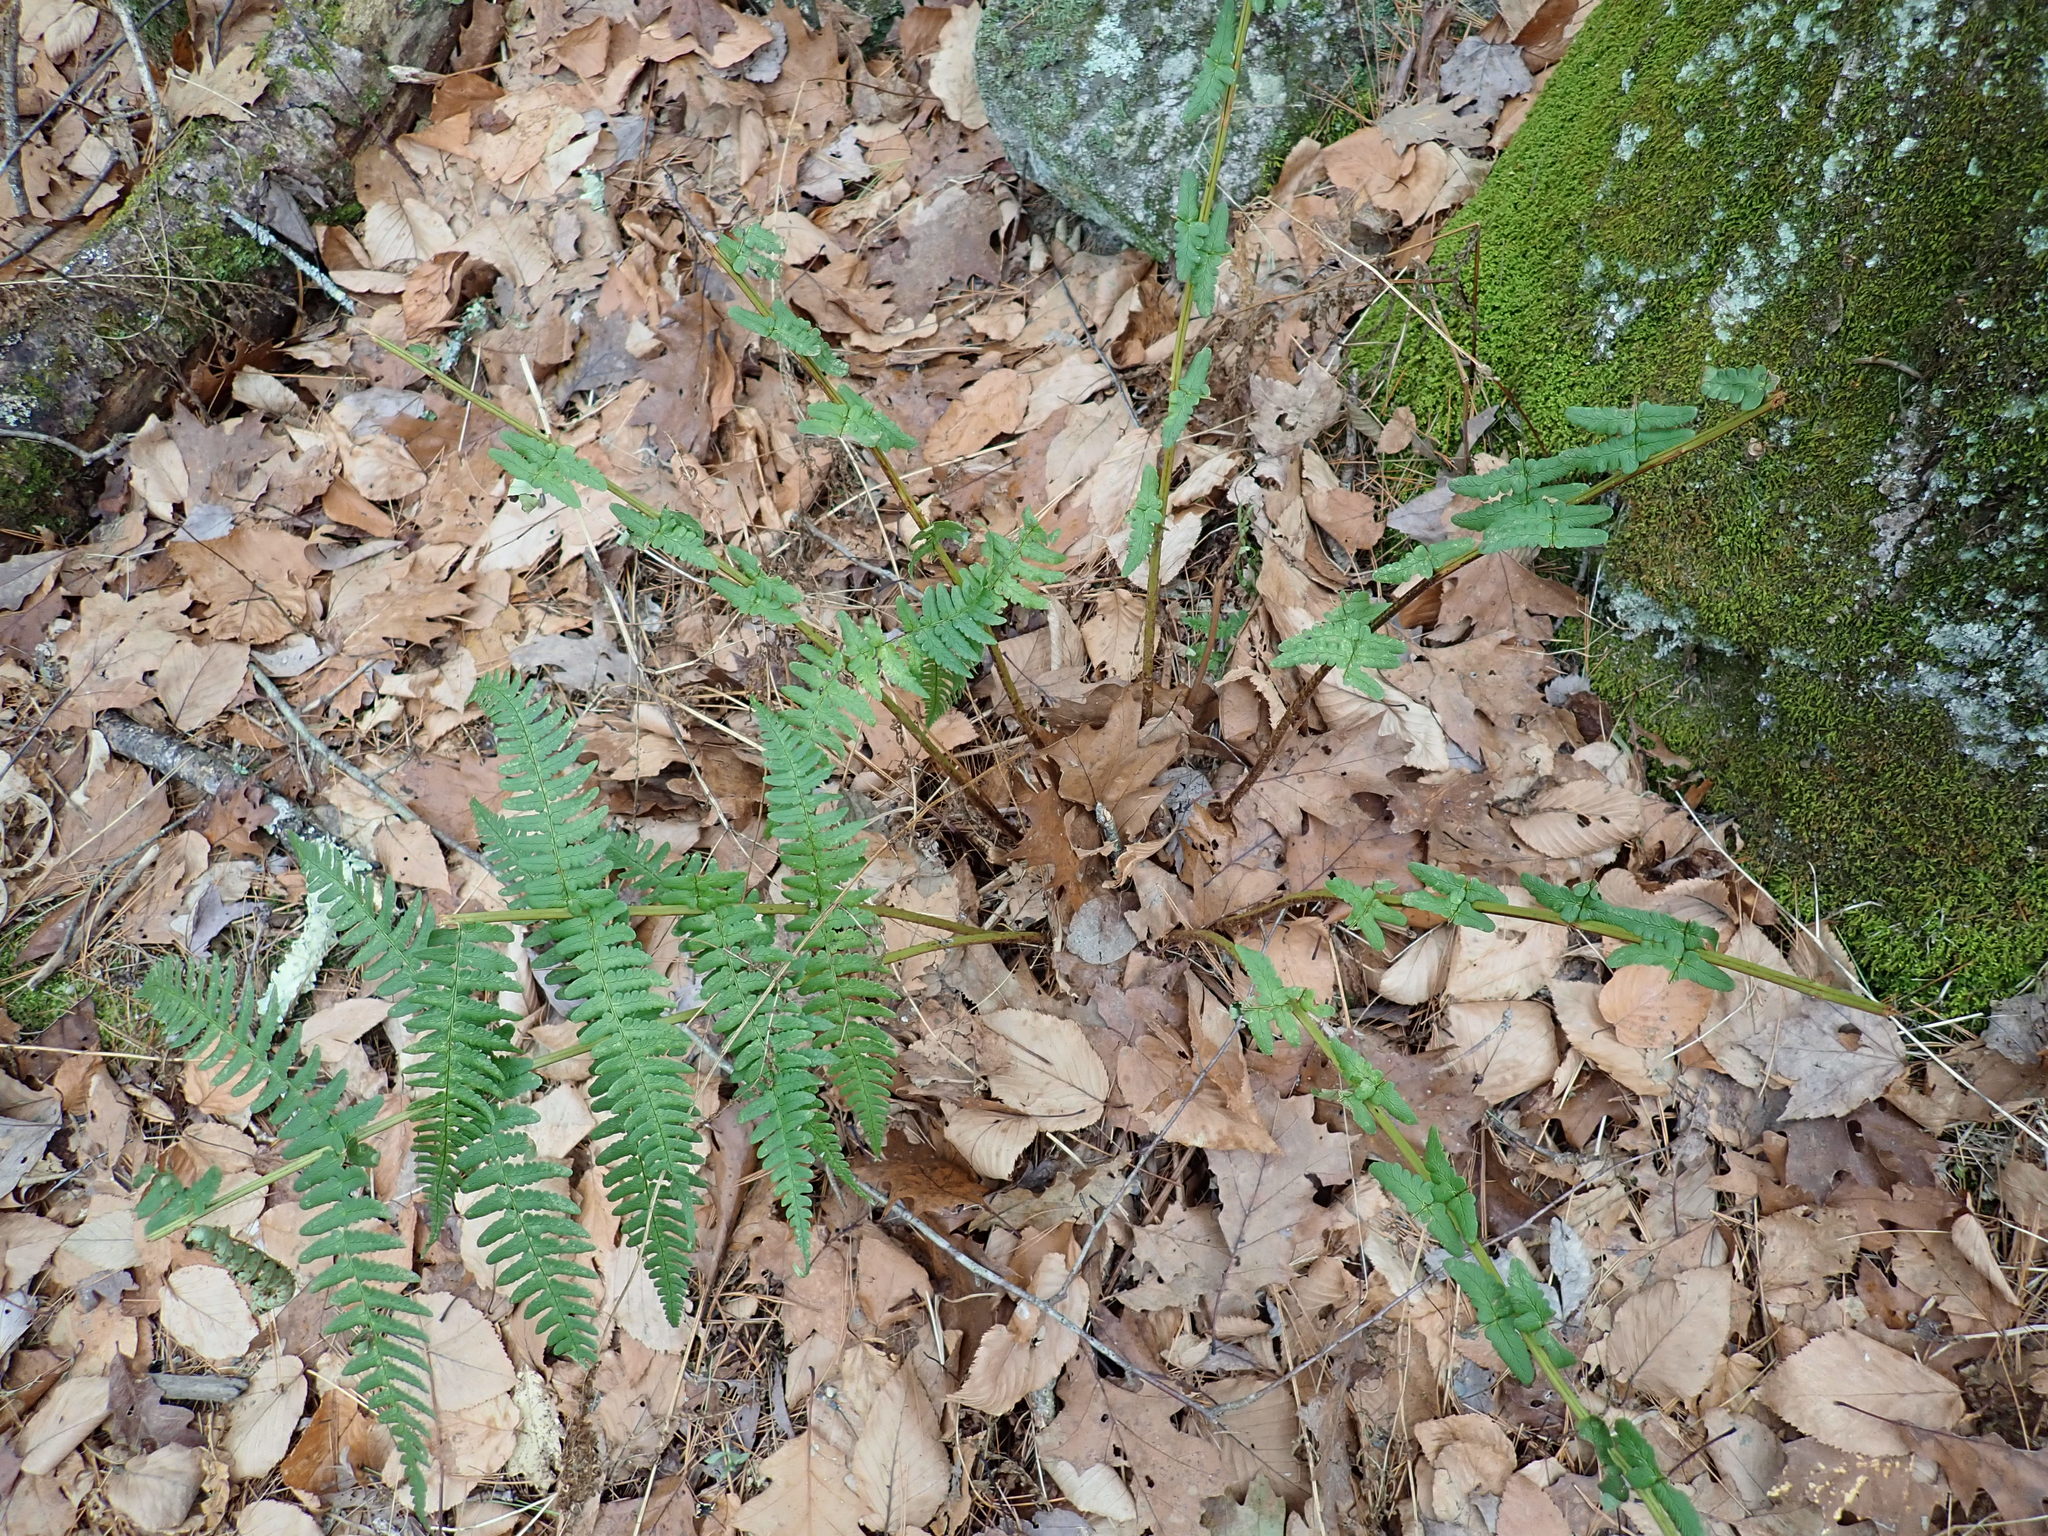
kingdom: Plantae
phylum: Tracheophyta
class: Polypodiopsida
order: Polypodiales
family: Dryopteridaceae
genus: Dryopteris
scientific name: Dryopteris marginalis
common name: Marginal wood fern
